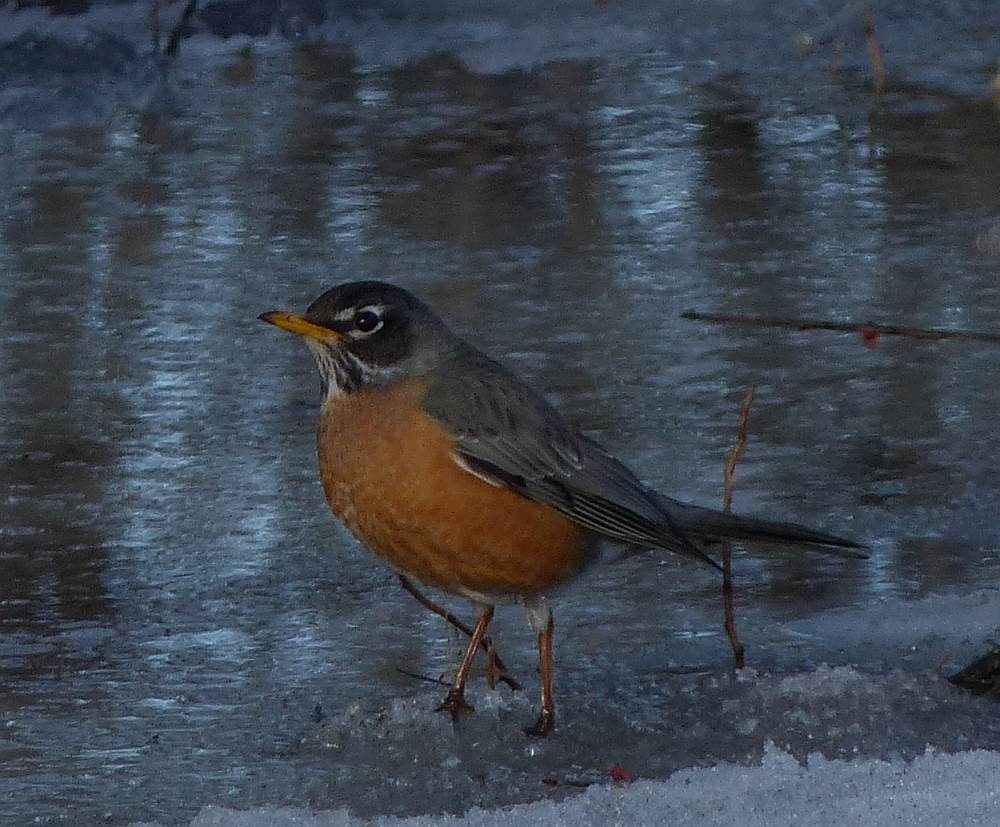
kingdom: Animalia
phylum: Chordata
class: Aves
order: Passeriformes
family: Turdidae
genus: Turdus
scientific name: Turdus migratorius
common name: American robin
